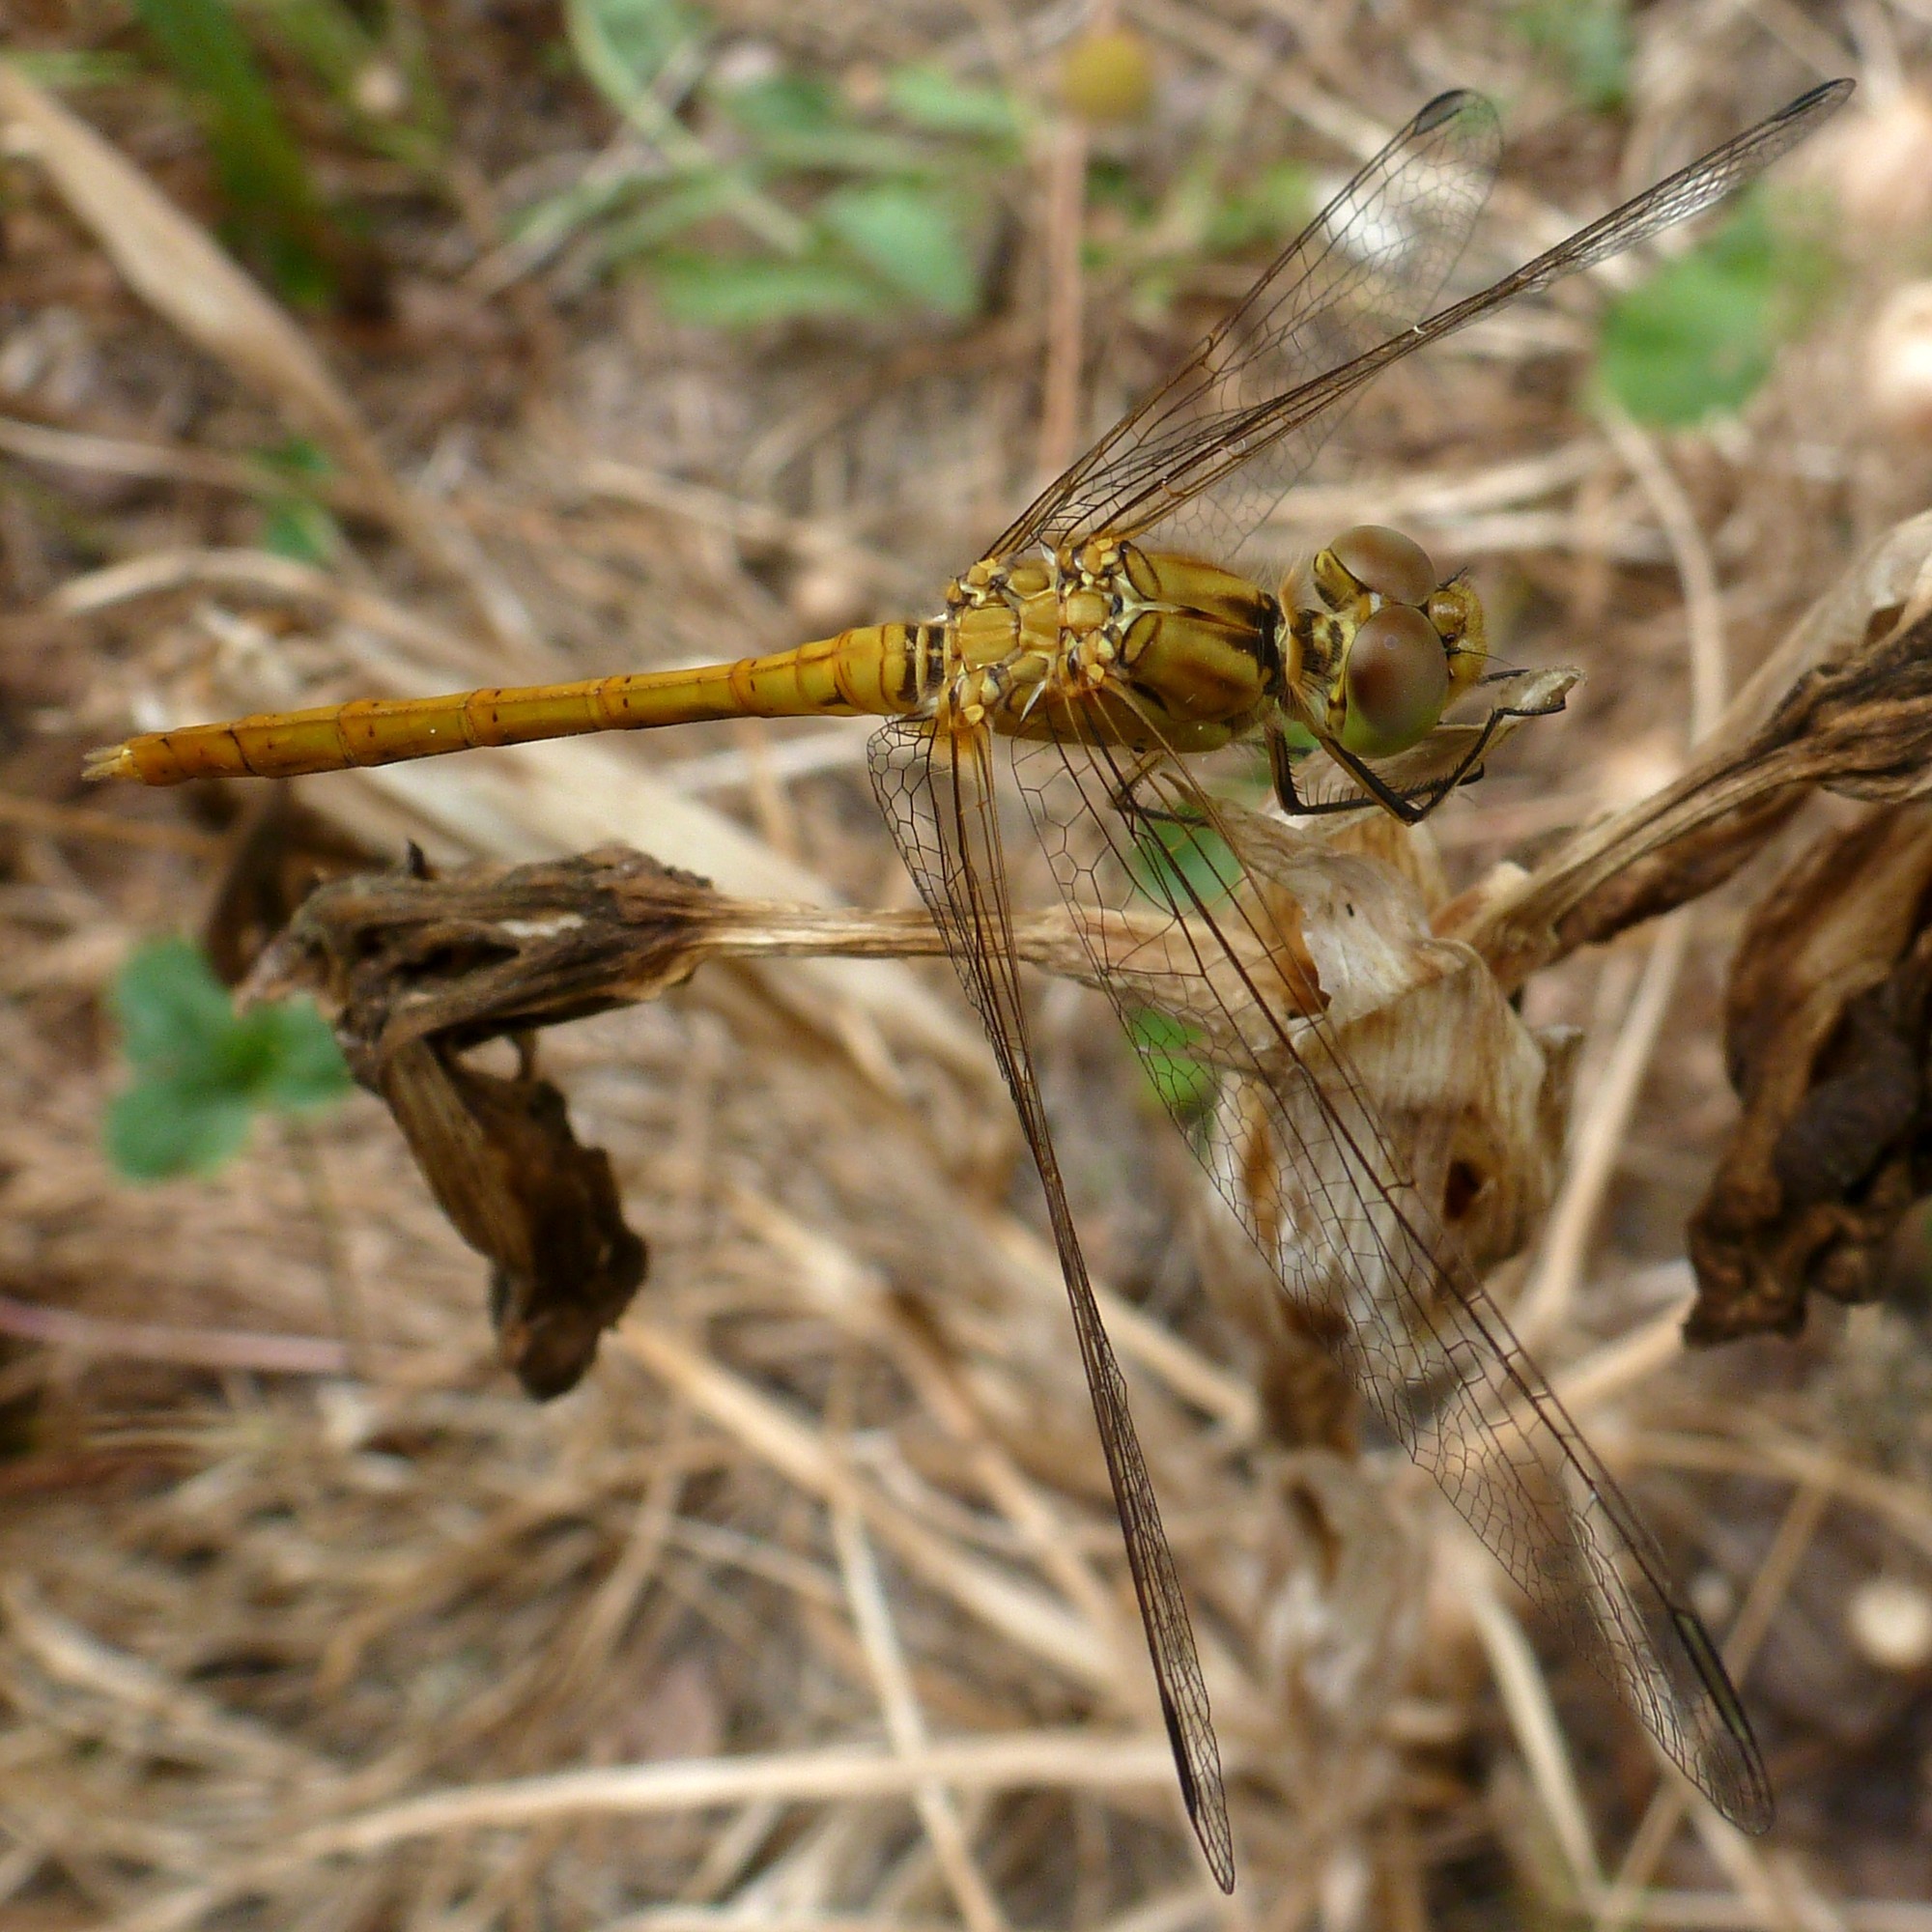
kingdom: Animalia
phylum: Arthropoda
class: Insecta
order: Odonata
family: Libellulidae
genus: Sympetrum
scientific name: Sympetrum meridionale
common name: Southern darter
